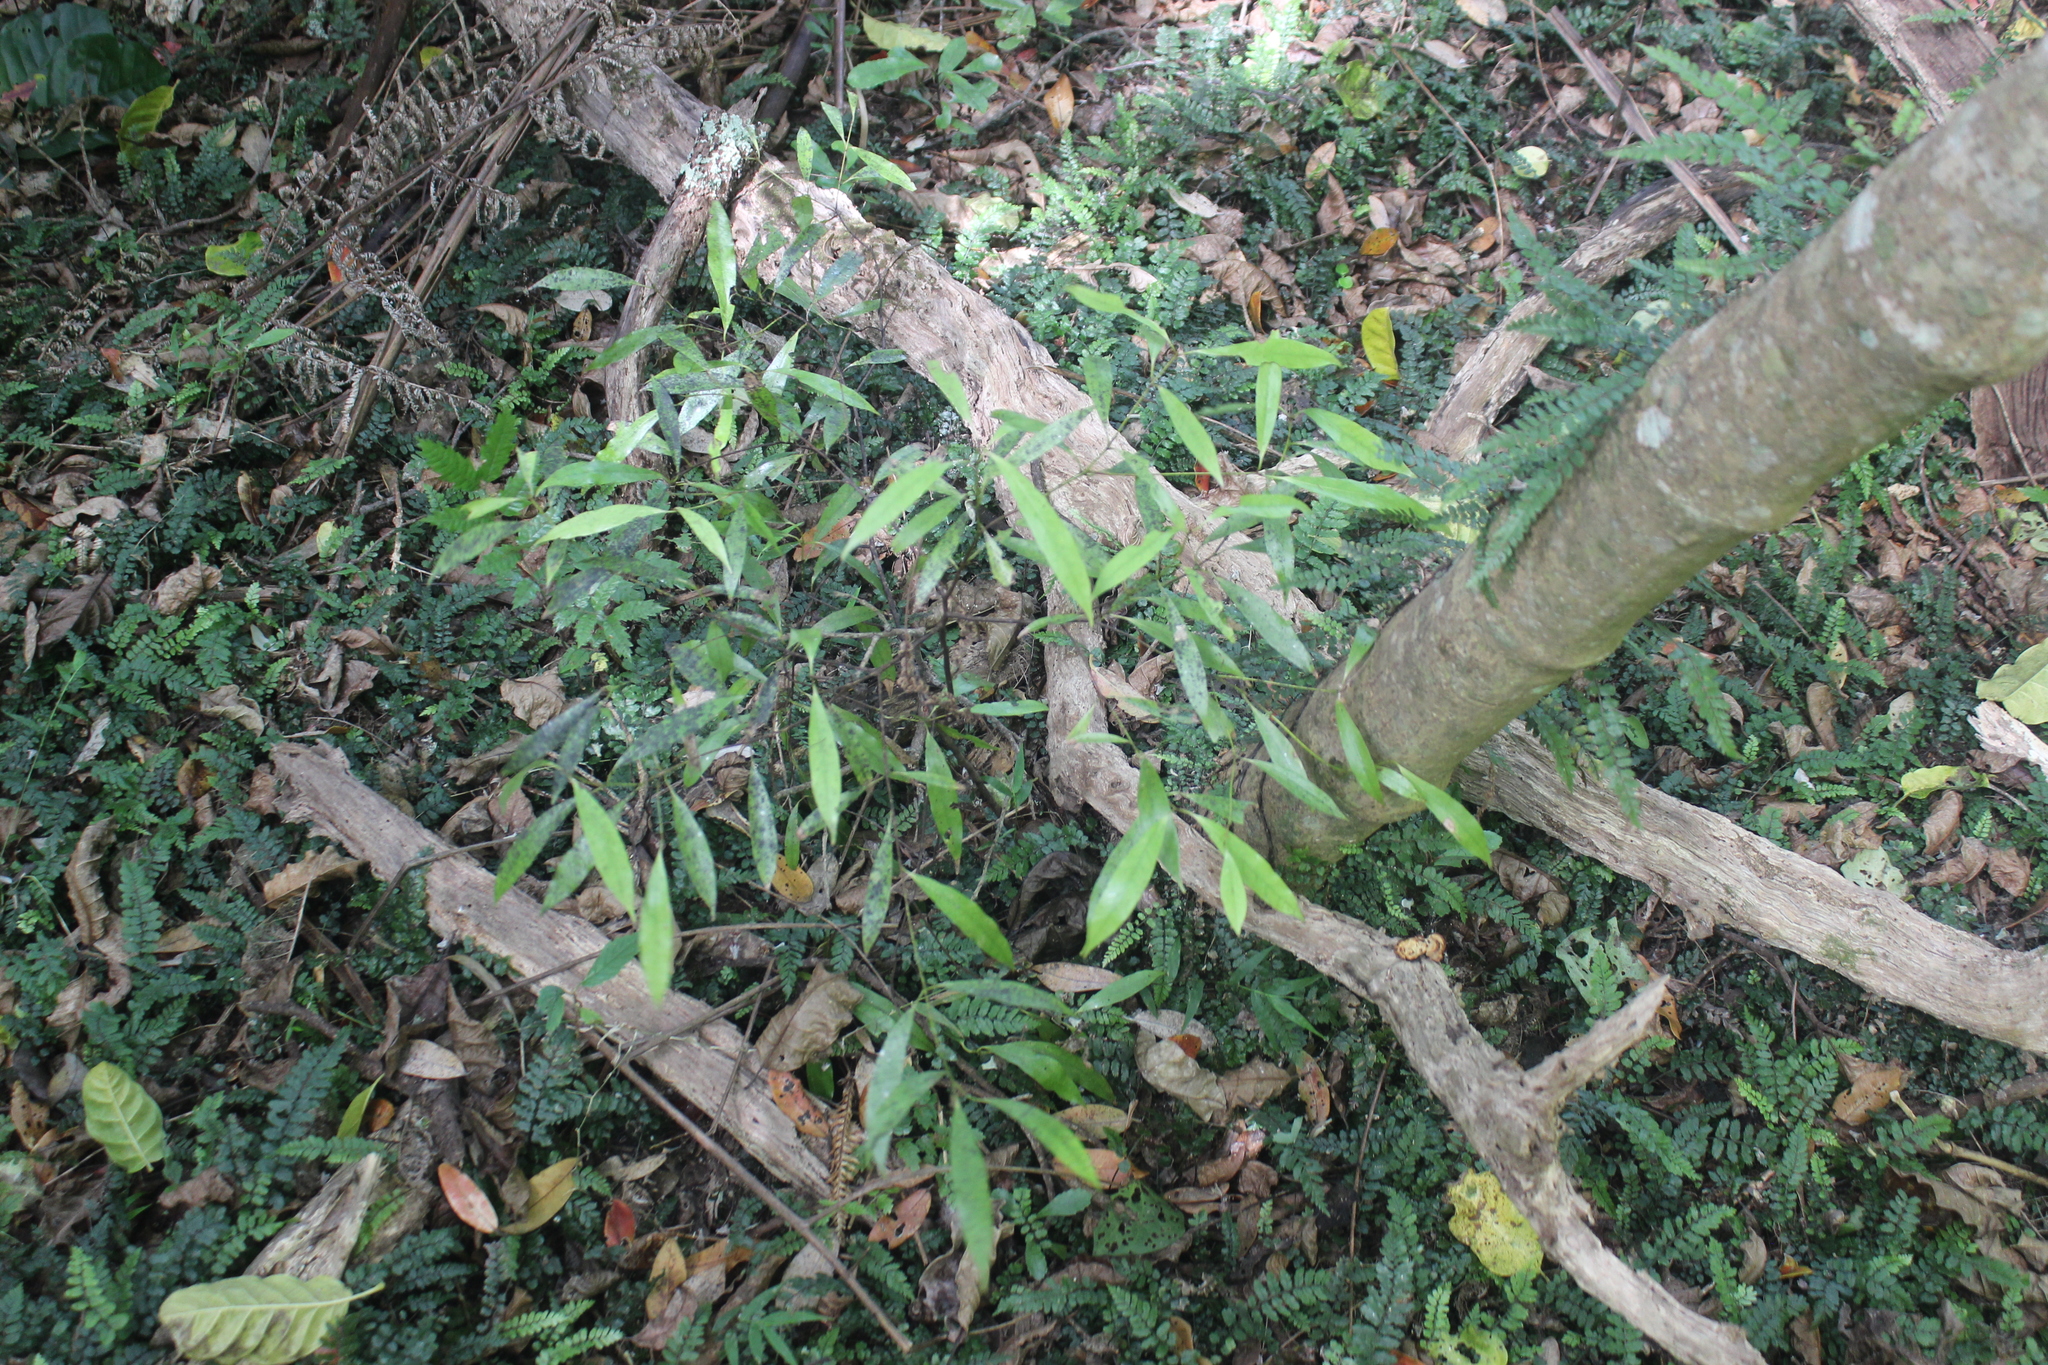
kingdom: Plantae
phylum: Tracheophyta
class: Magnoliopsida
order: Laurales
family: Lauraceae
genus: Beilschmiedia
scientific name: Beilschmiedia tawa
